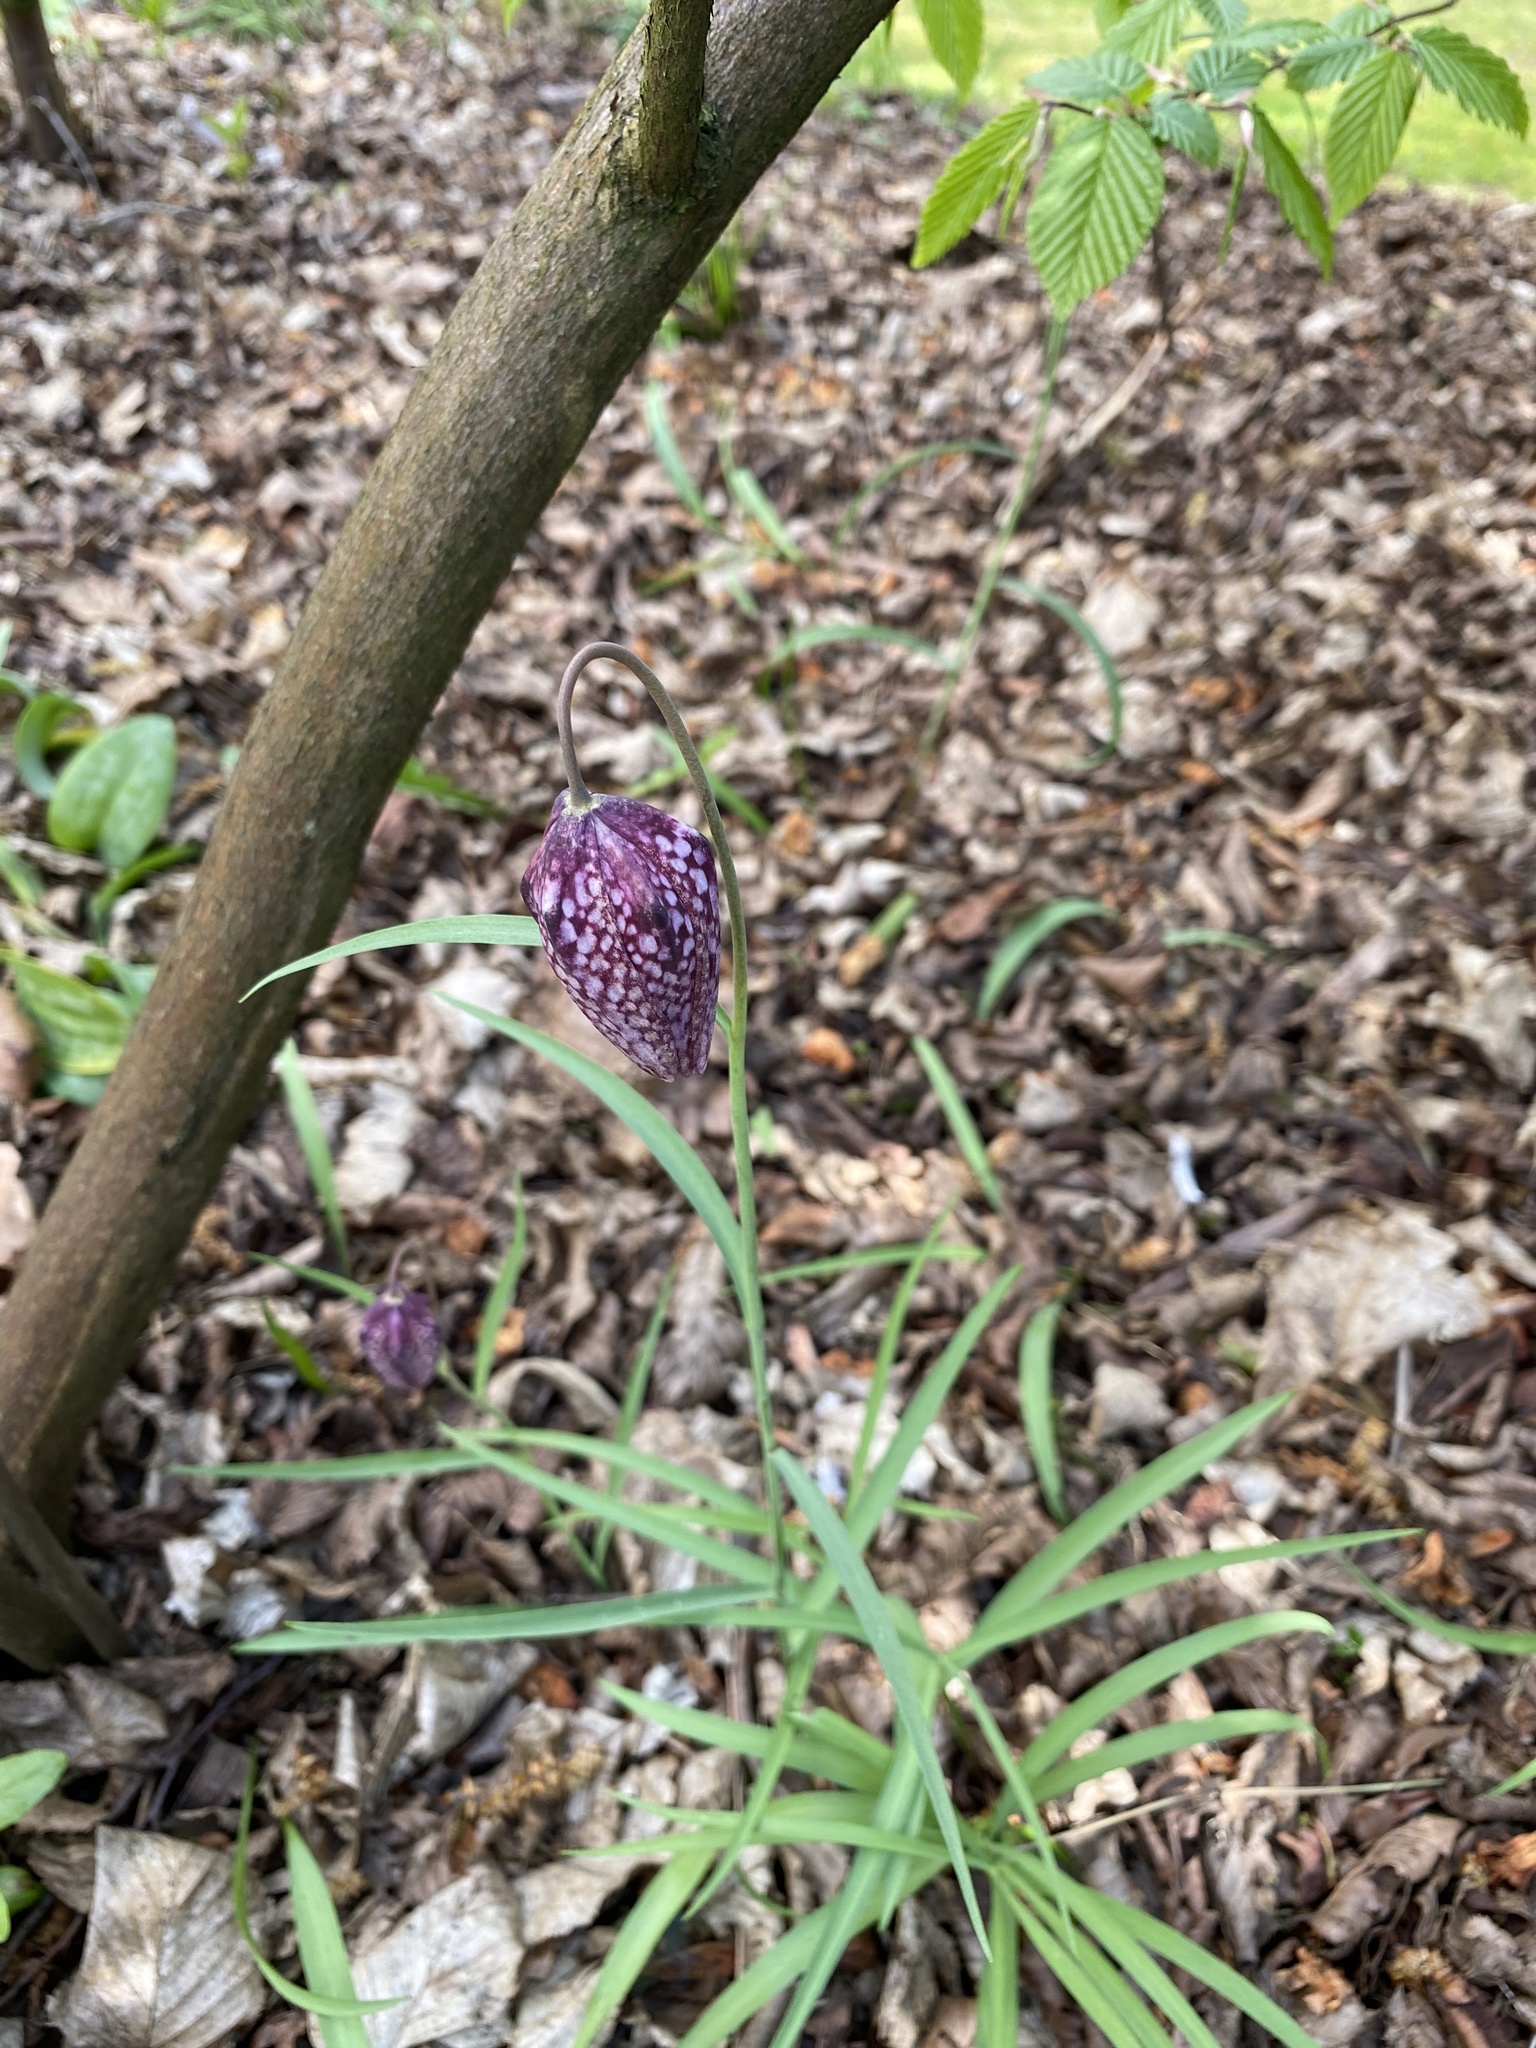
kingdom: Plantae
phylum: Tracheophyta
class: Liliopsida
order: Liliales
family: Liliaceae
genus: Fritillaria
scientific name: Fritillaria meleagris
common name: Fritillary
